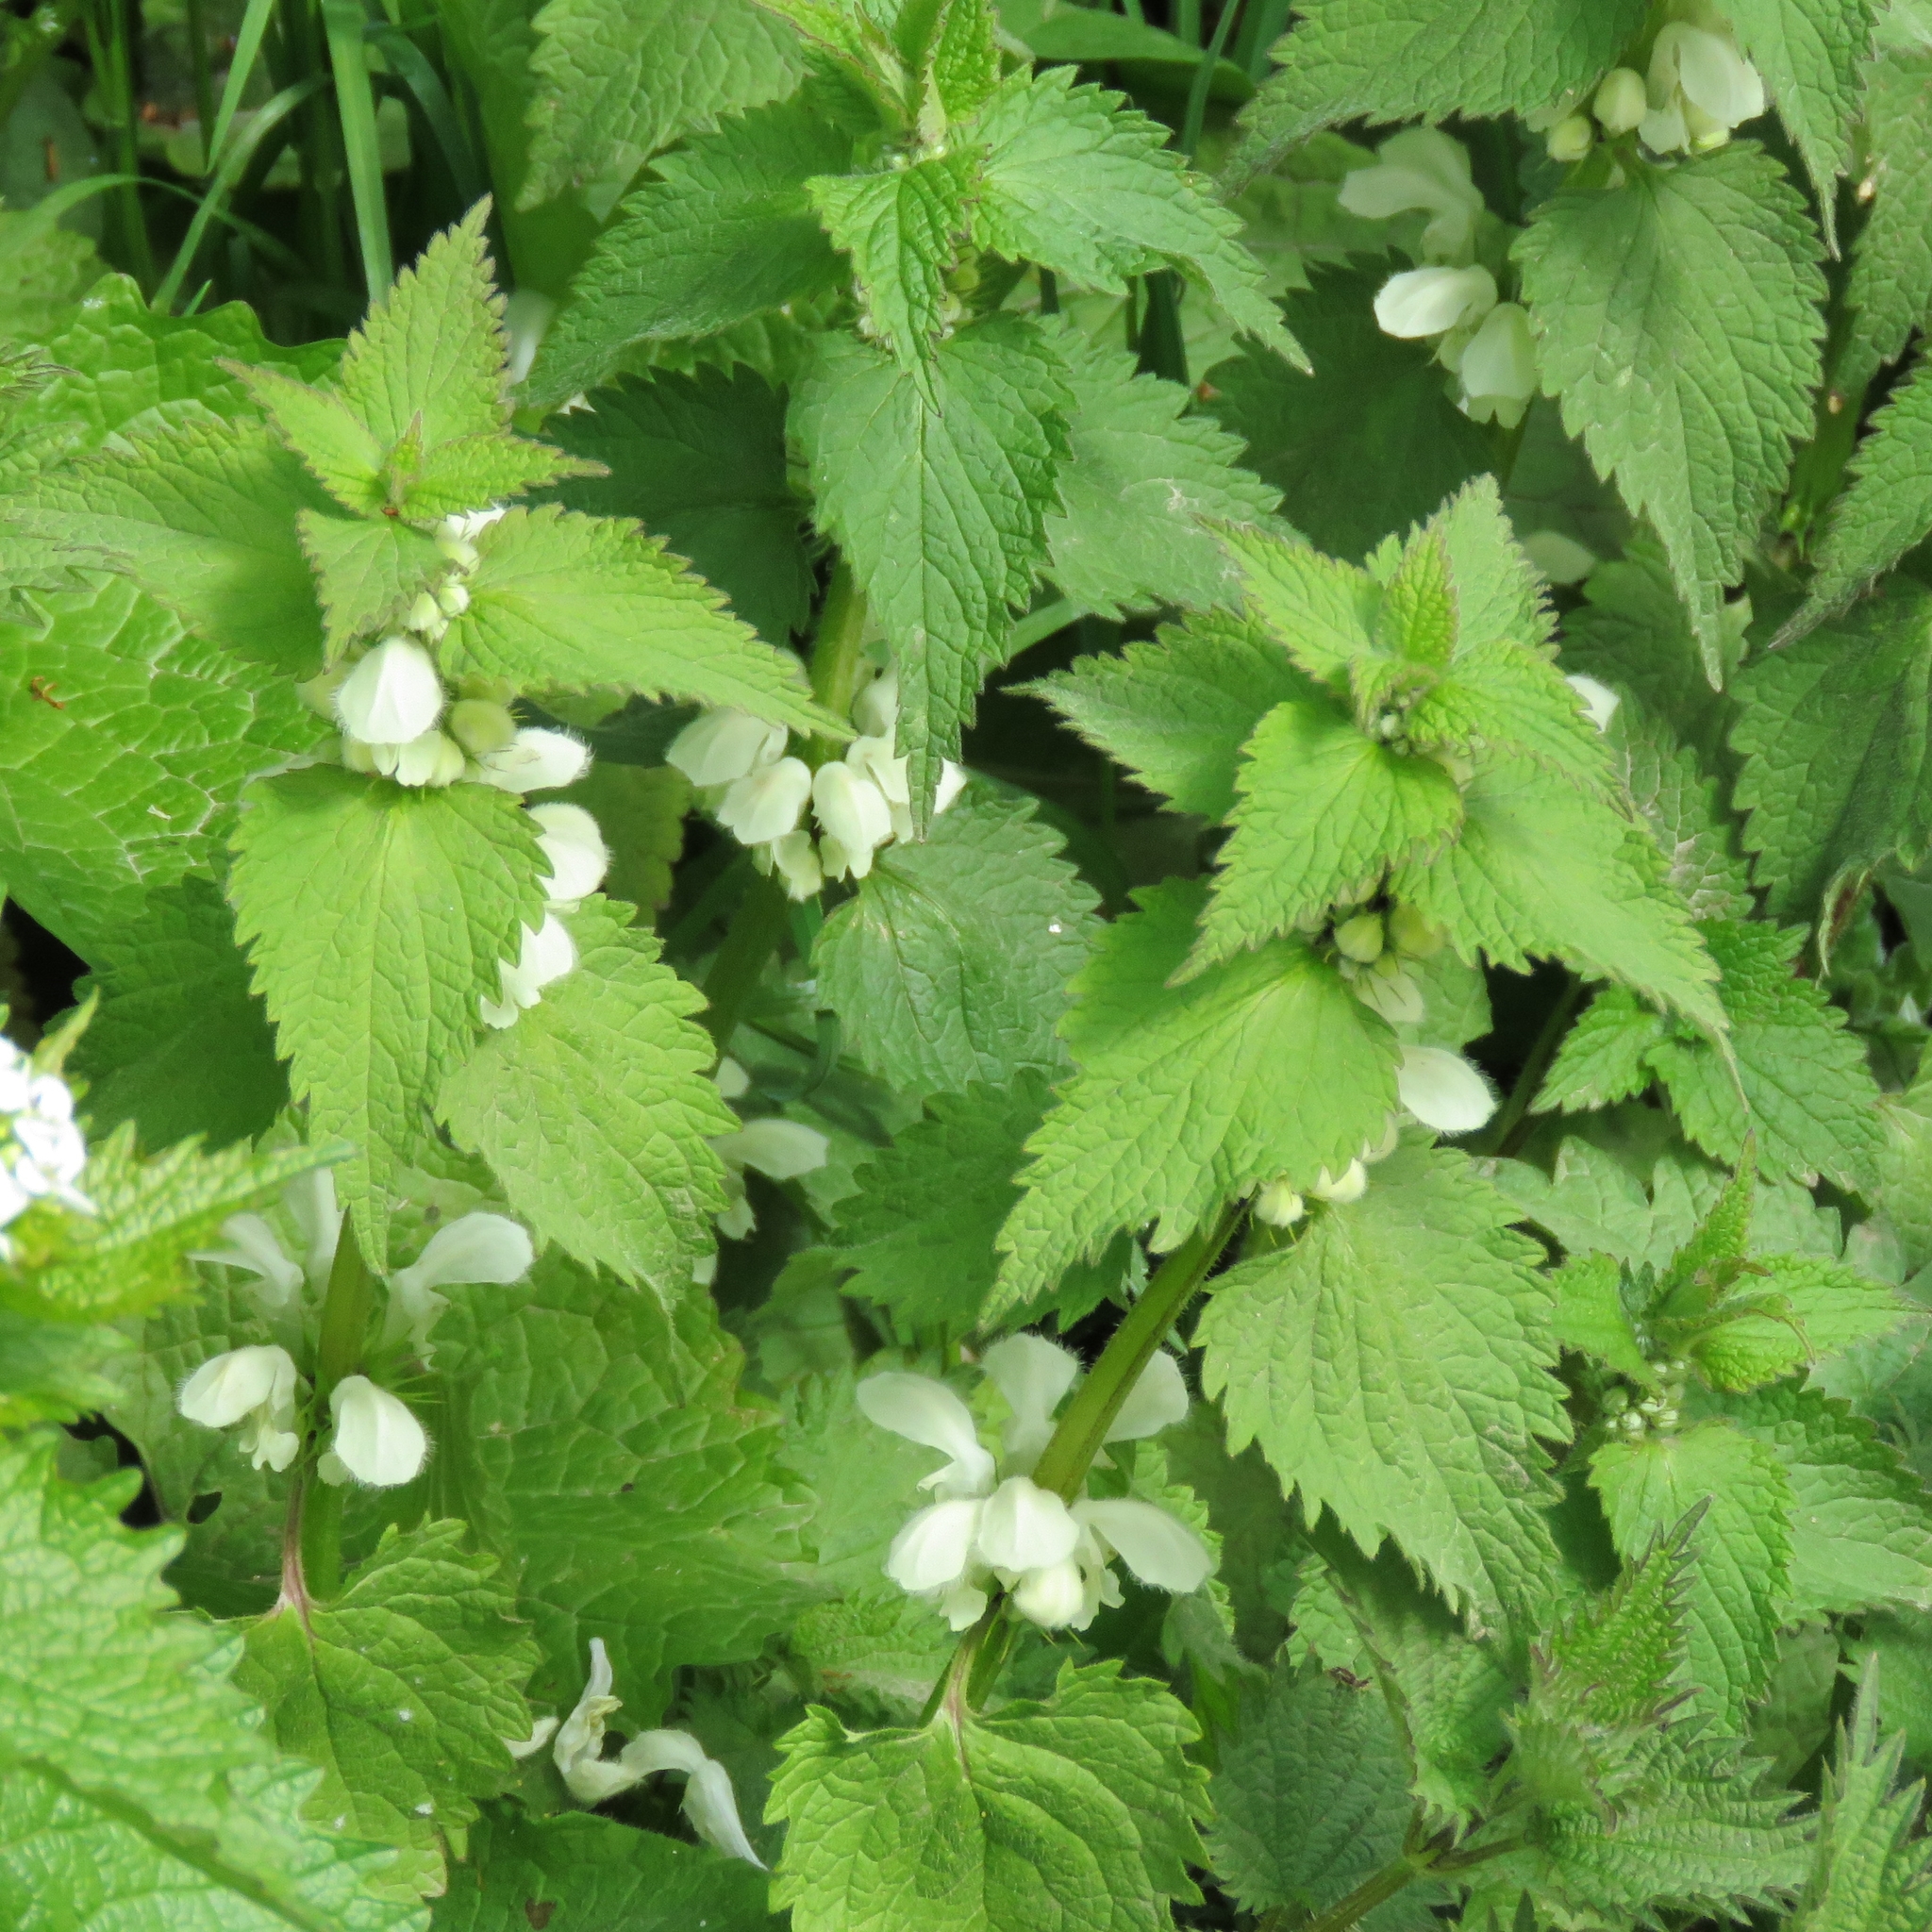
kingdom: Plantae
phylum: Tracheophyta
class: Magnoliopsida
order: Lamiales
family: Lamiaceae
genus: Lamium
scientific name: Lamium album
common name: White dead-nettle
